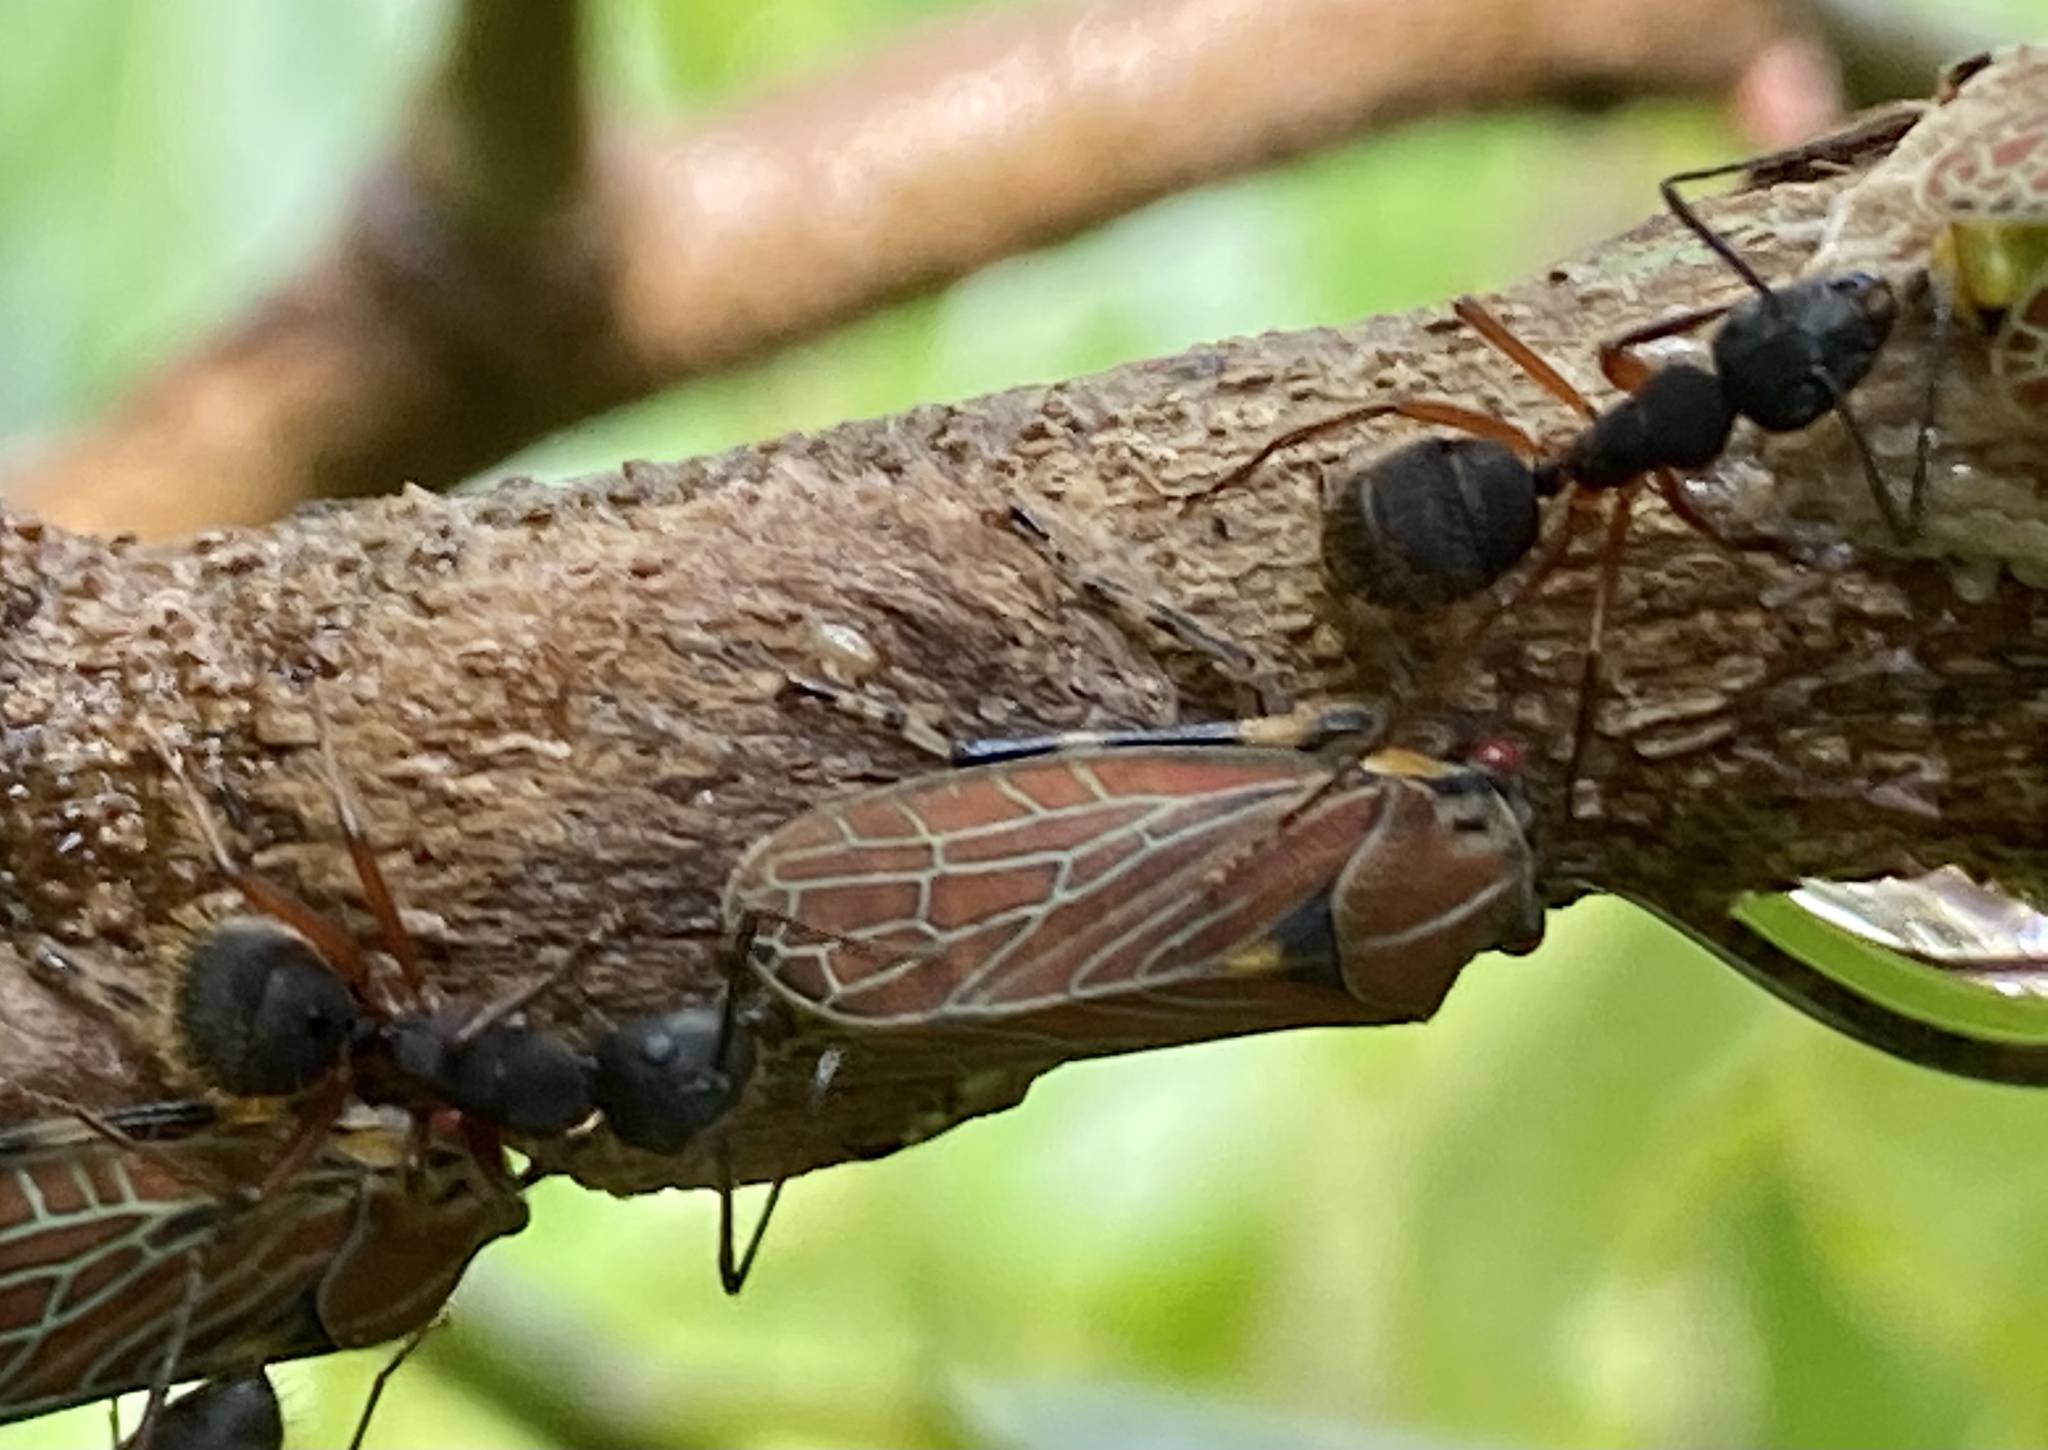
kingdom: Animalia
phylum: Arthropoda
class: Insecta
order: Hemiptera
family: Aetalionidae
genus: Aetalion
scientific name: Aetalion reticulatum
